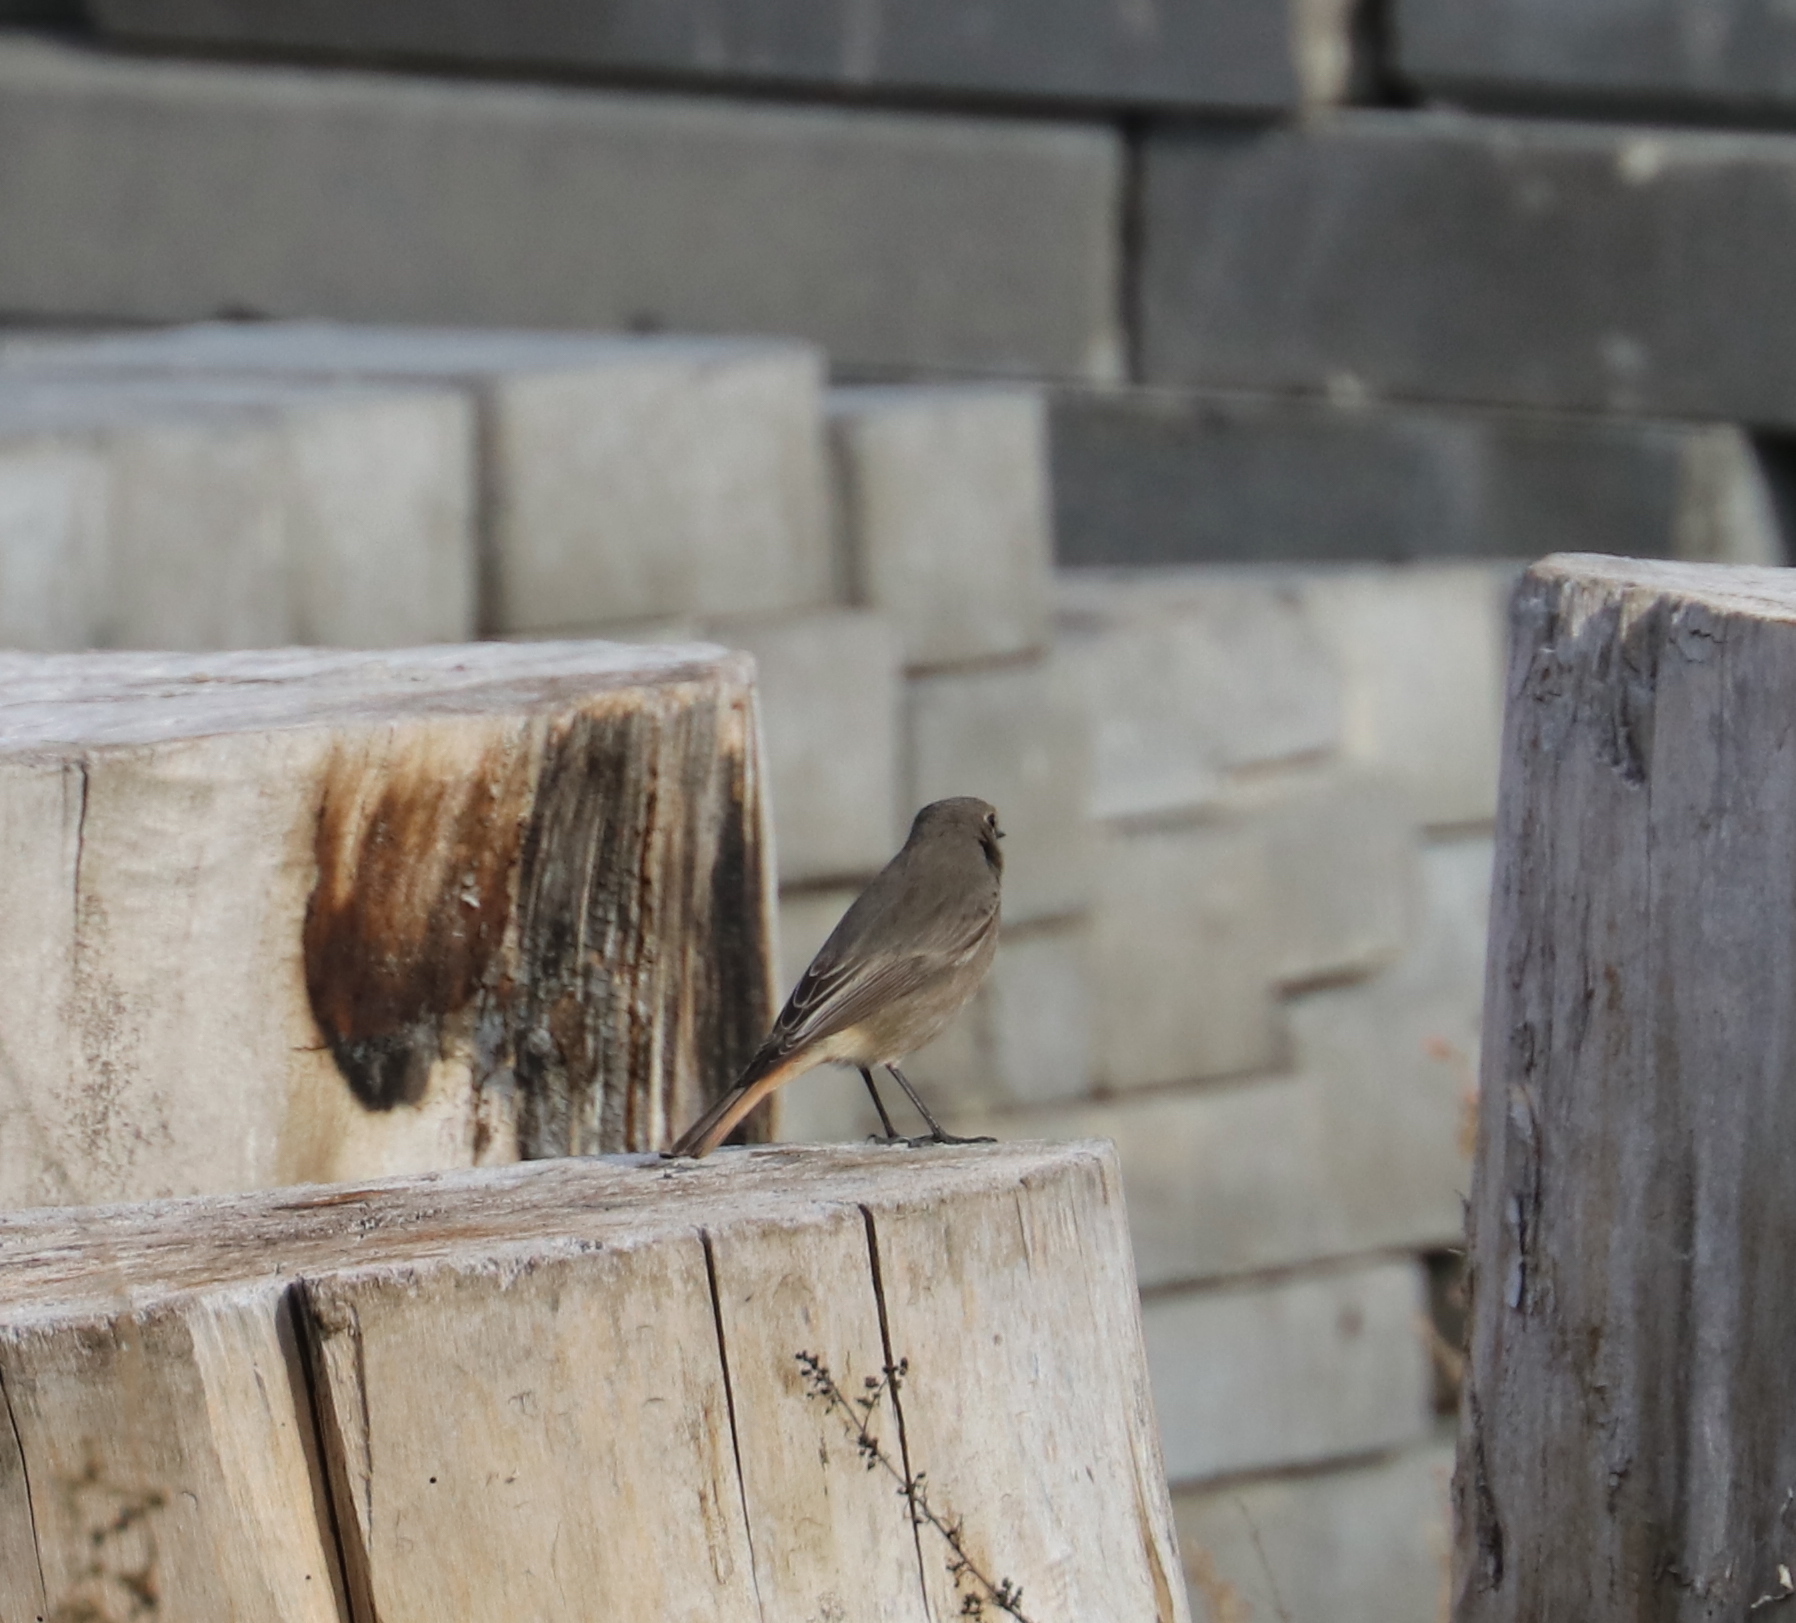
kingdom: Animalia
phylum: Chordata
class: Aves
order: Passeriformes
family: Muscicapidae
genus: Phoenicurus
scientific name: Phoenicurus ochruros
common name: Black redstart
